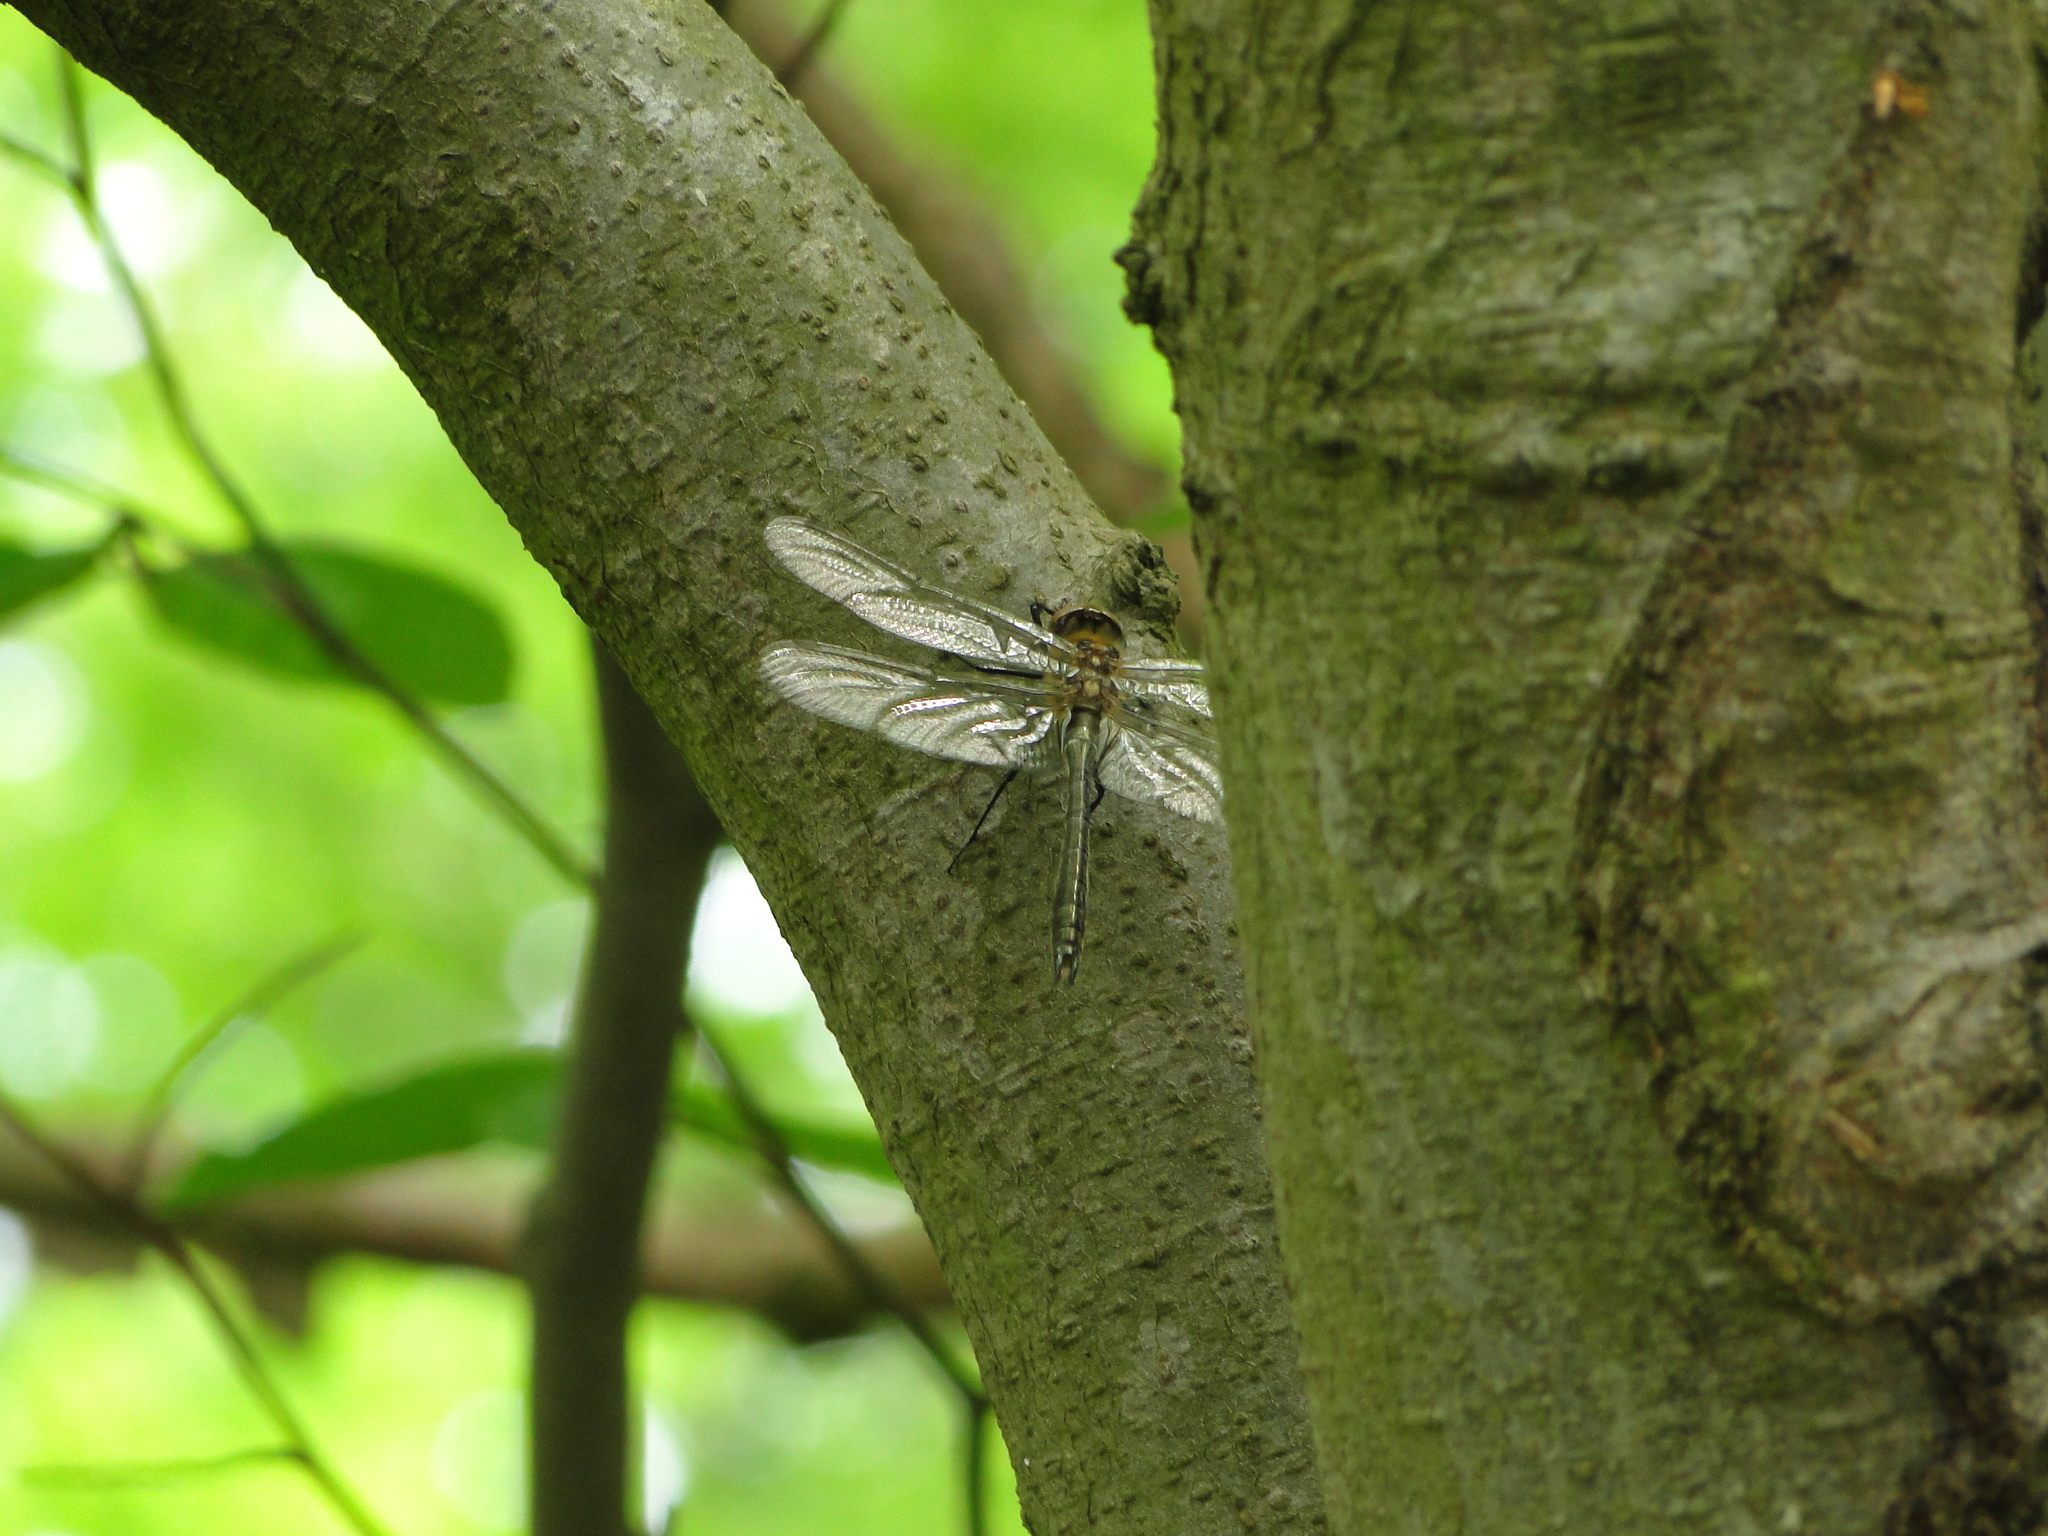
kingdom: Animalia
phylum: Arthropoda
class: Insecta
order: Odonata
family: Corduliidae
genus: Cordulia
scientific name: Cordulia aenea
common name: Downy emerald
